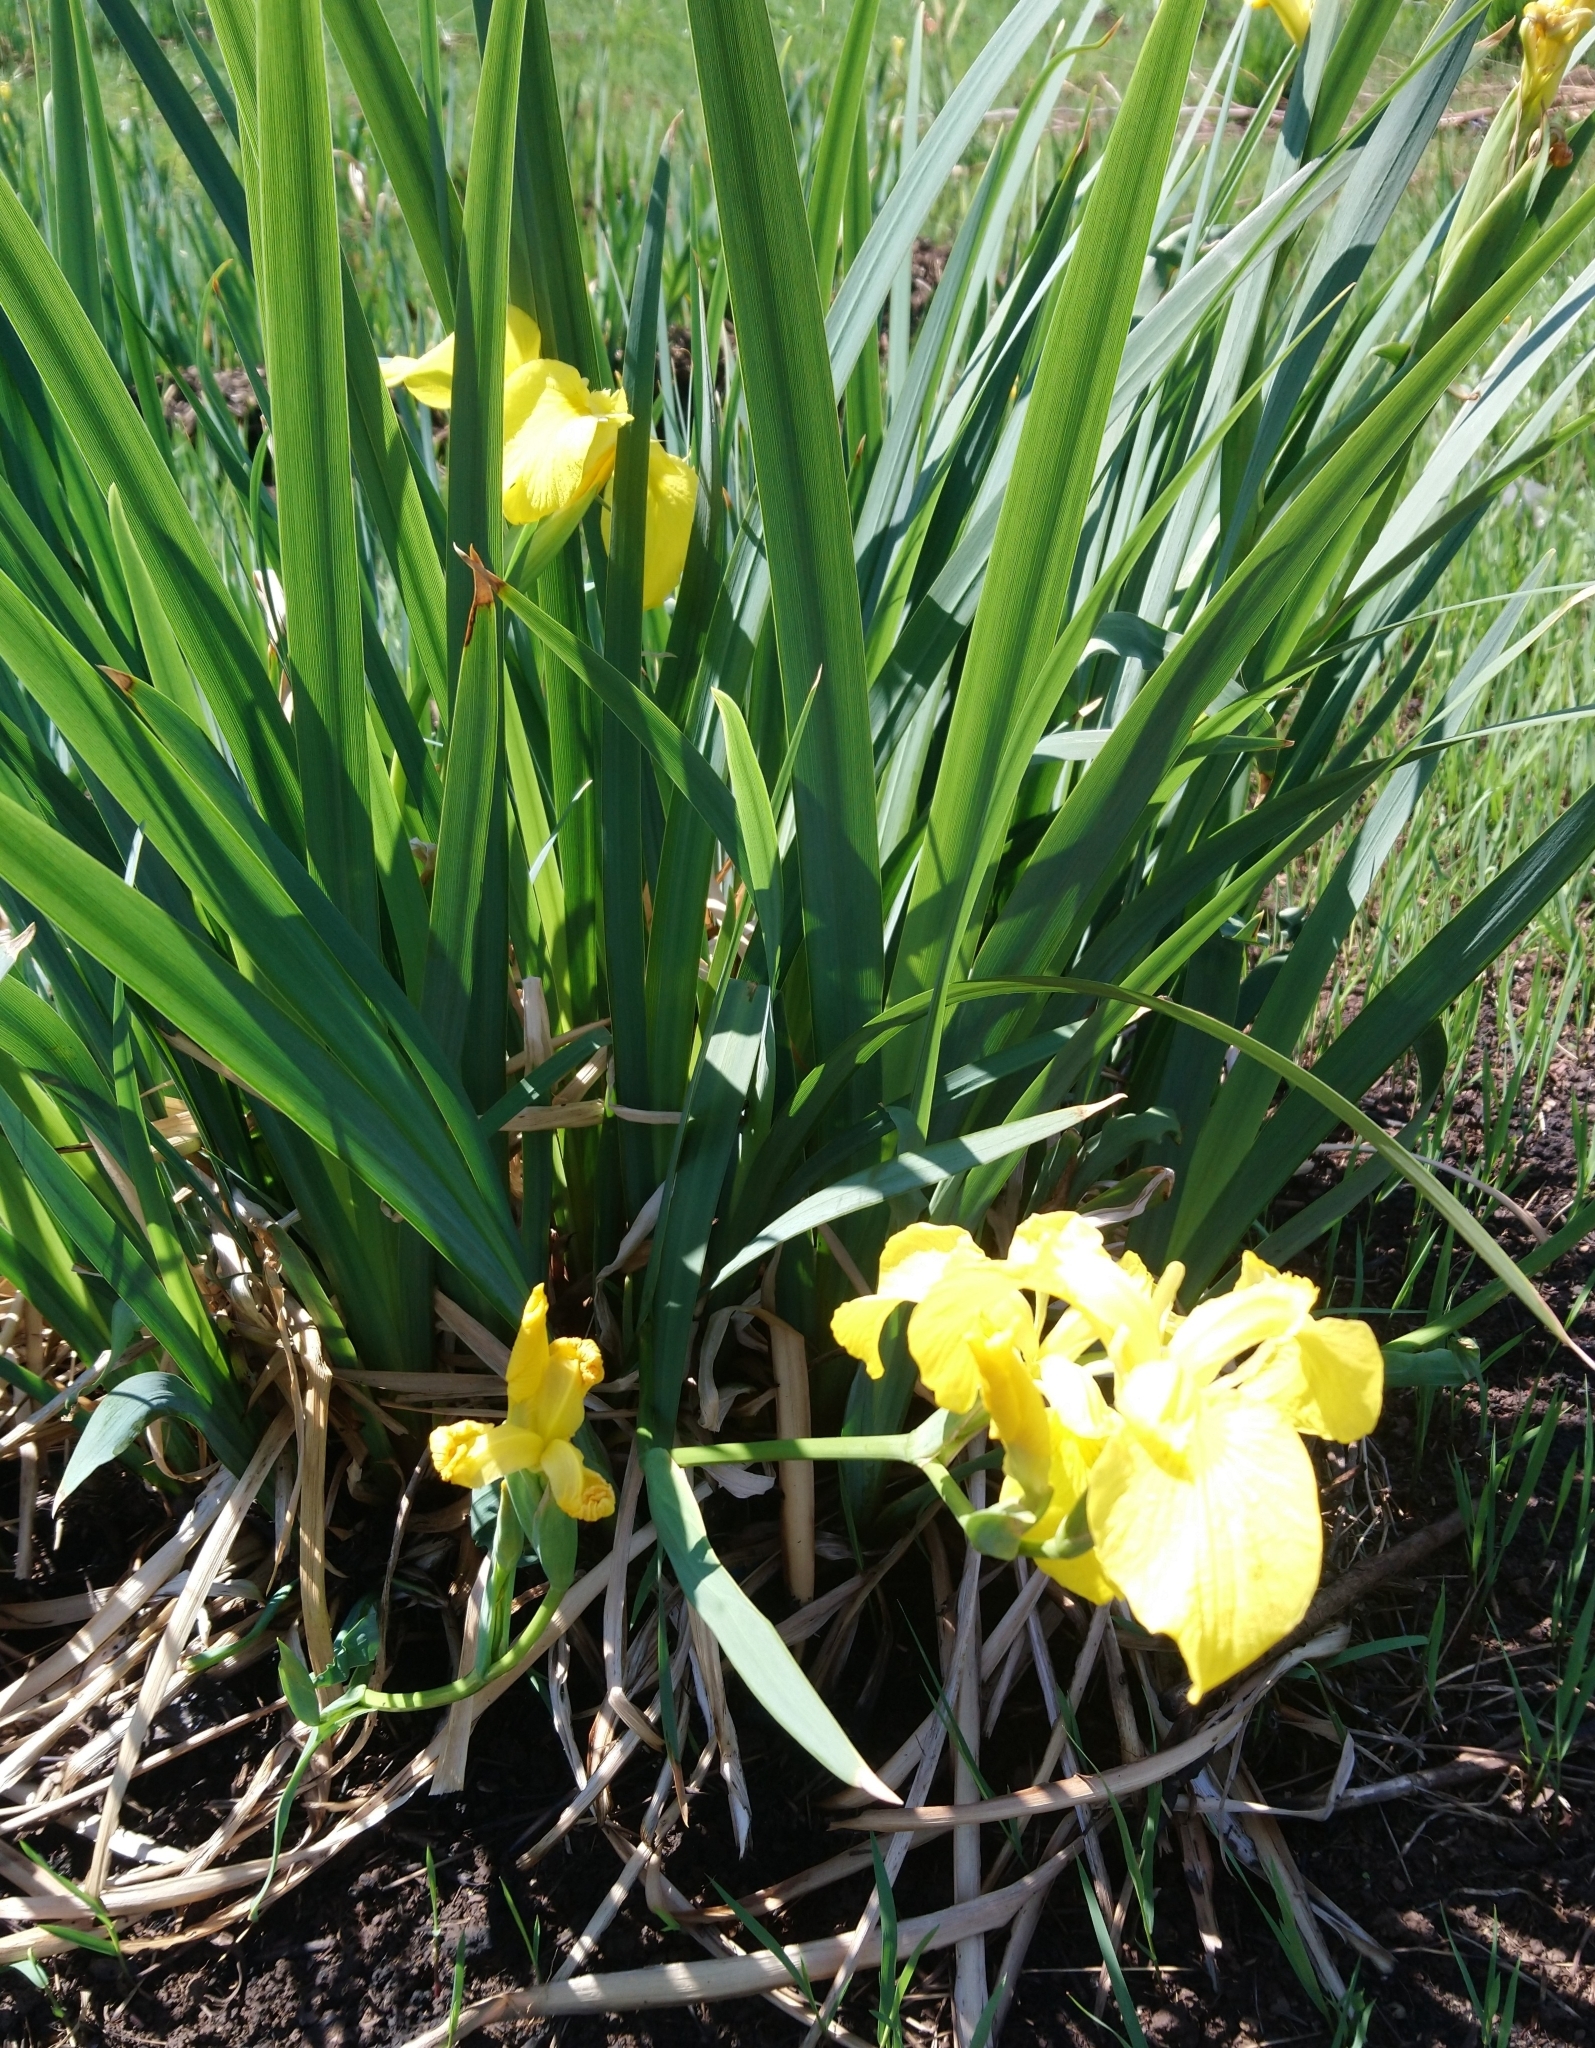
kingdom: Plantae
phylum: Tracheophyta
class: Liliopsida
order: Asparagales
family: Iridaceae
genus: Iris
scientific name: Iris pseudacorus
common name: Yellow flag
